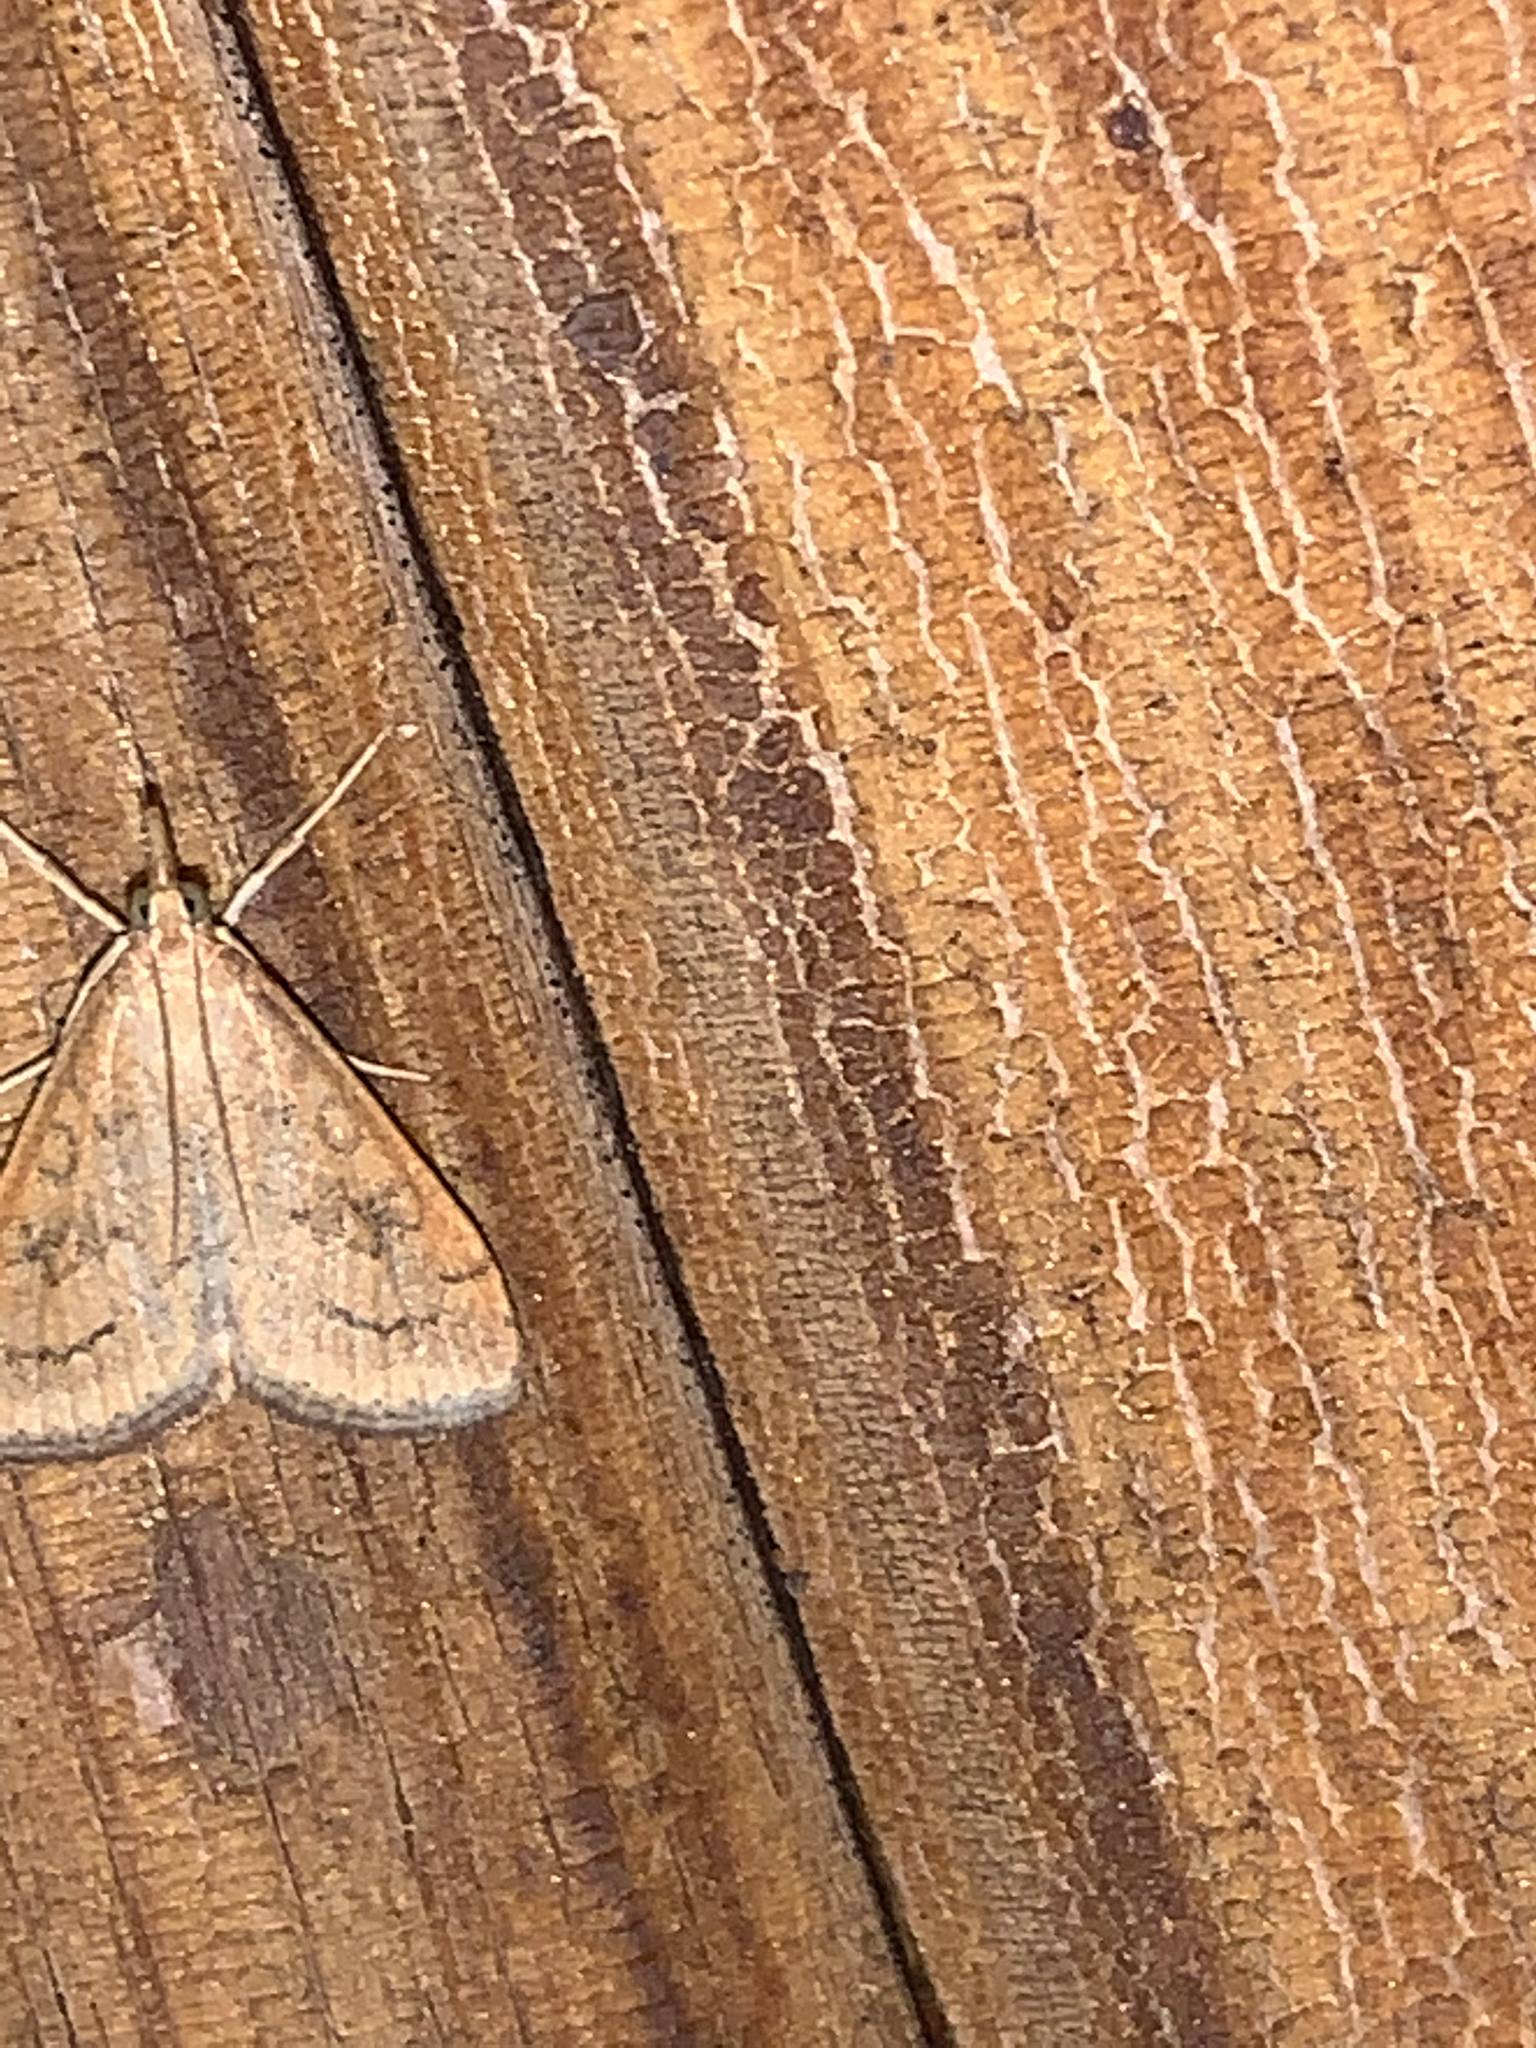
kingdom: Animalia
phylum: Arthropoda
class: Insecta
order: Lepidoptera
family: Crambidae
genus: Udea
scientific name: Udea rubigalis
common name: Celery leaftier moth
